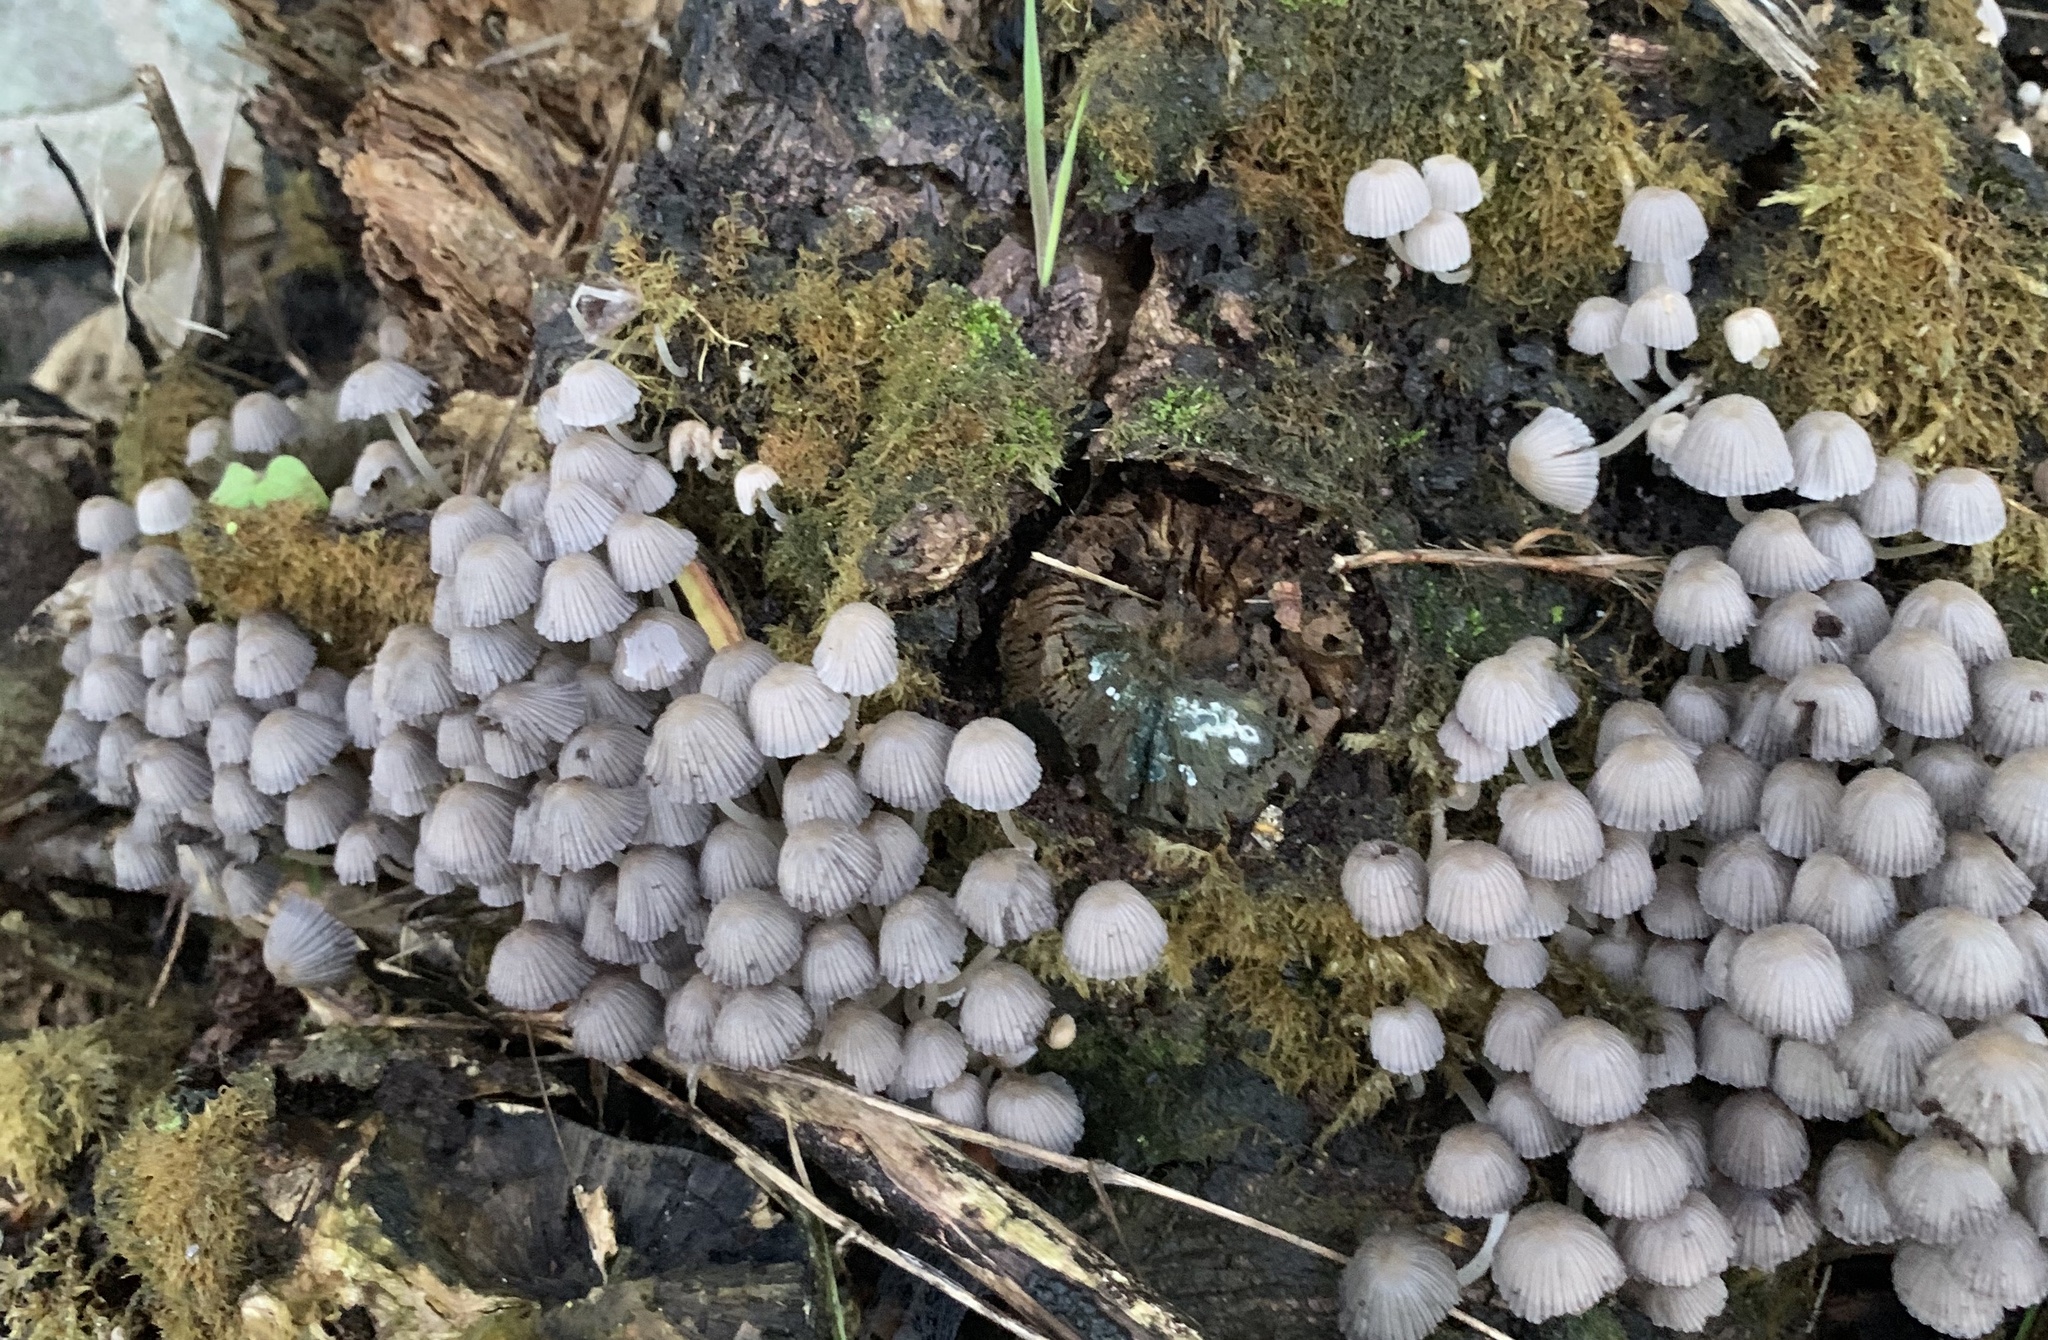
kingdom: Fungi
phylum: Basidiomycota
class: Agaricomycetes
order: Agaricales
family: Psathyrellaceae
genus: Coprinellus
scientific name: Coprinellus disseminatus
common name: Fairies' bonnets
